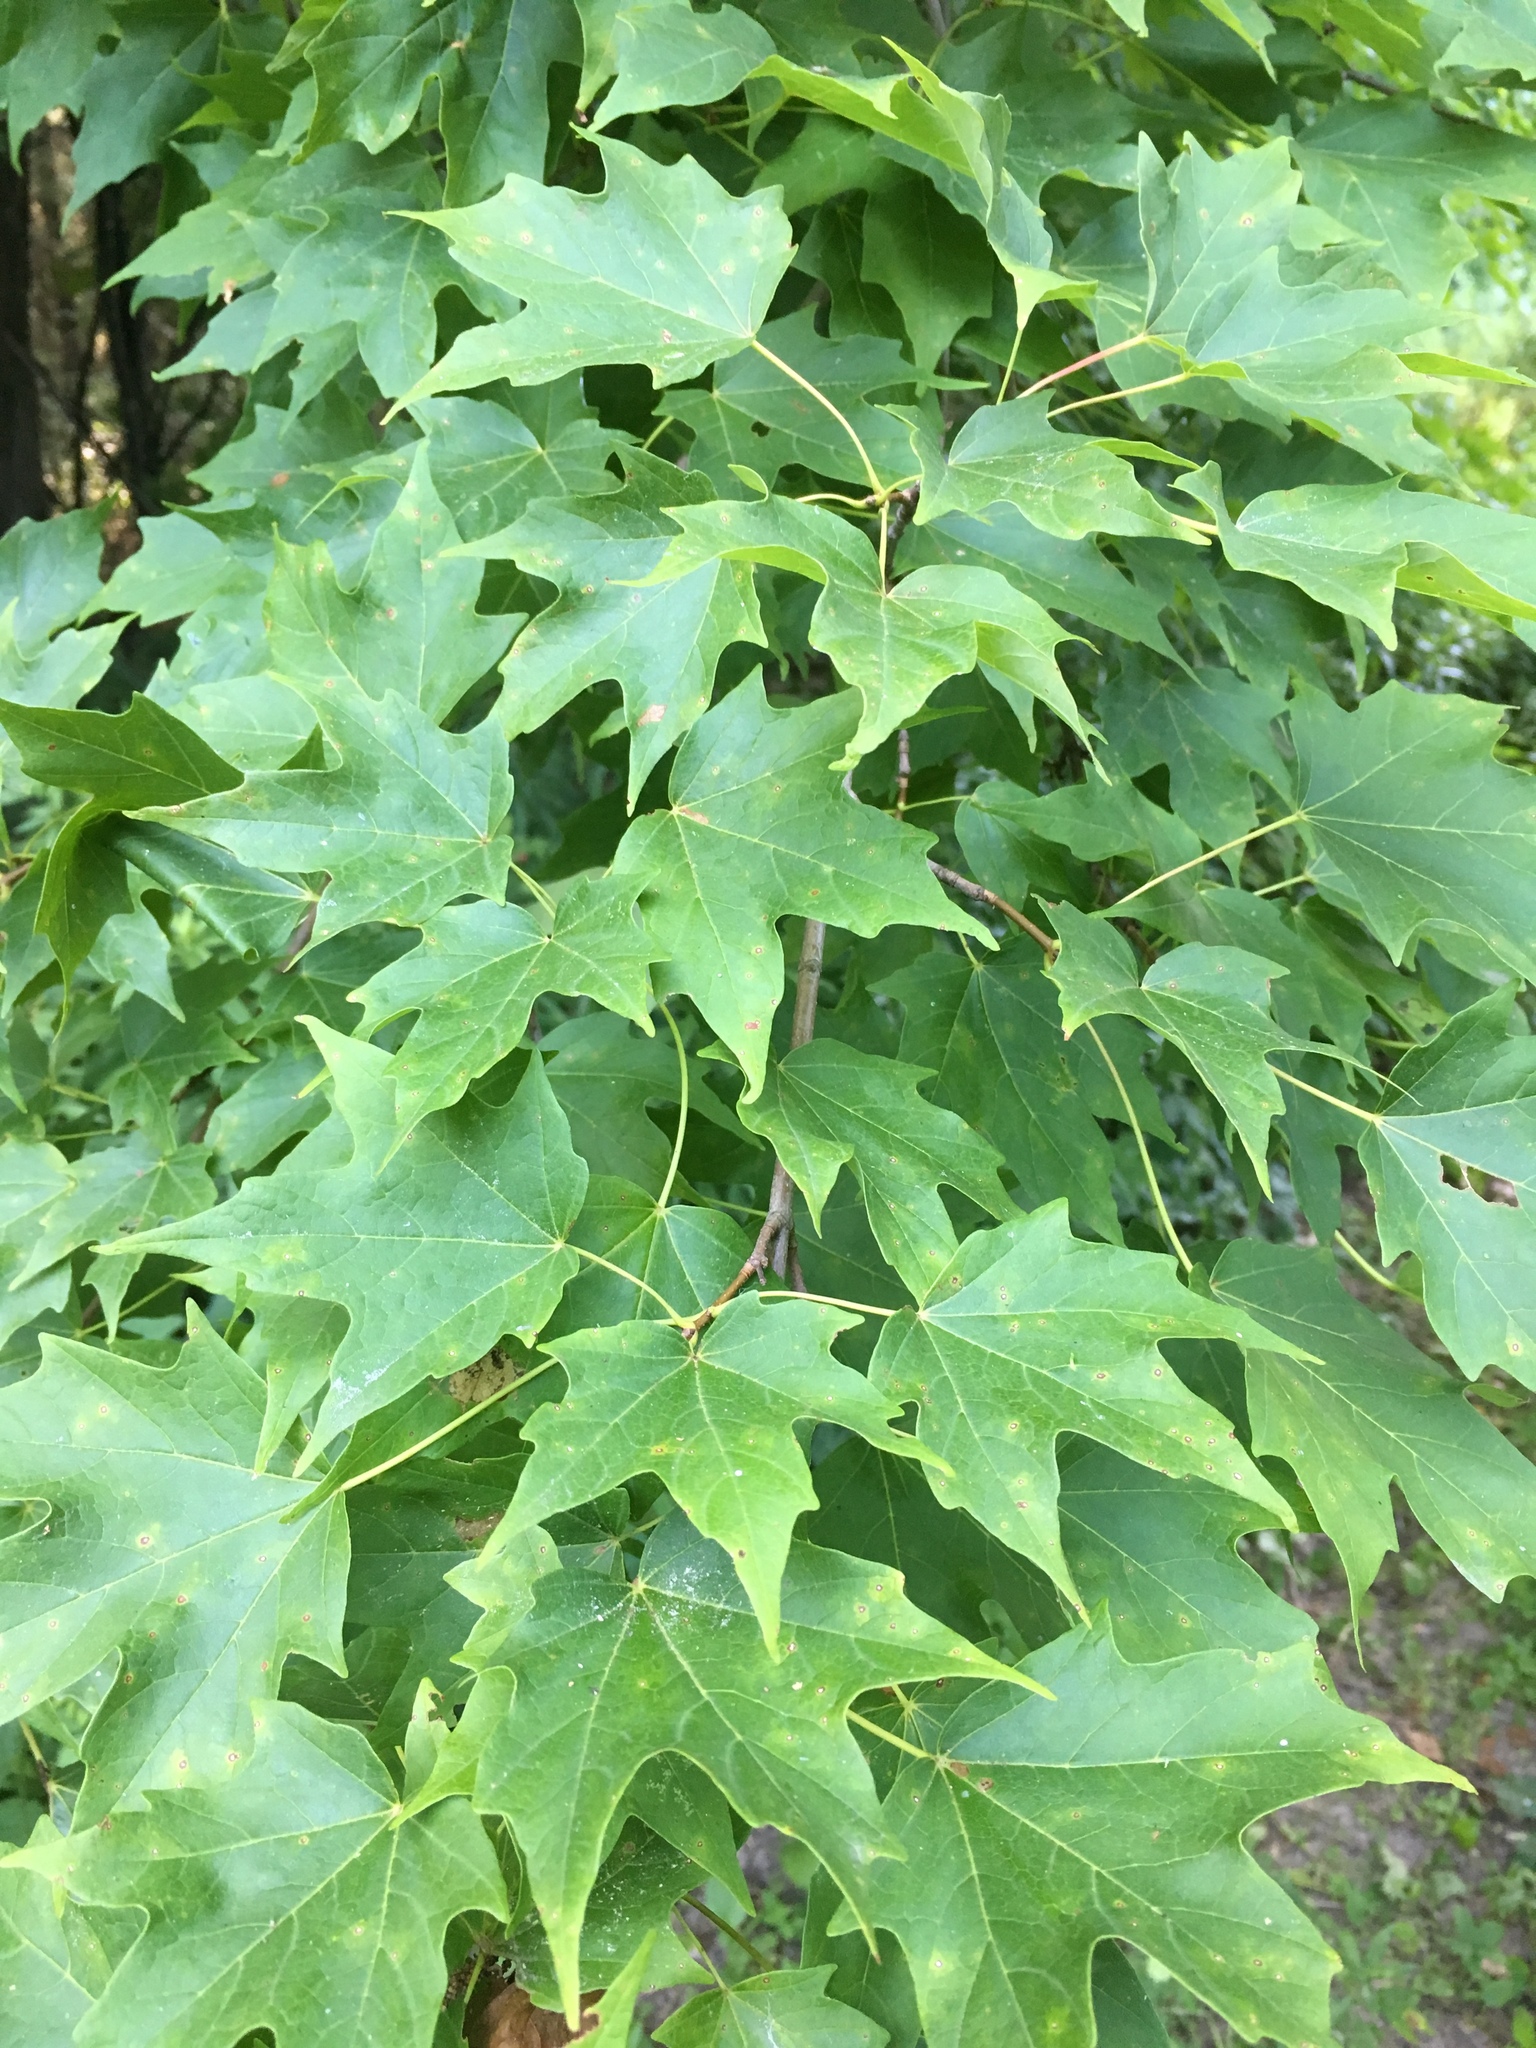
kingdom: Plantae
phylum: Tracheophyta
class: Magnoliopsida
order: Sapindales
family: Sapindaceae
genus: Acer
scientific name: Acer saccharum
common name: Sugar maple
